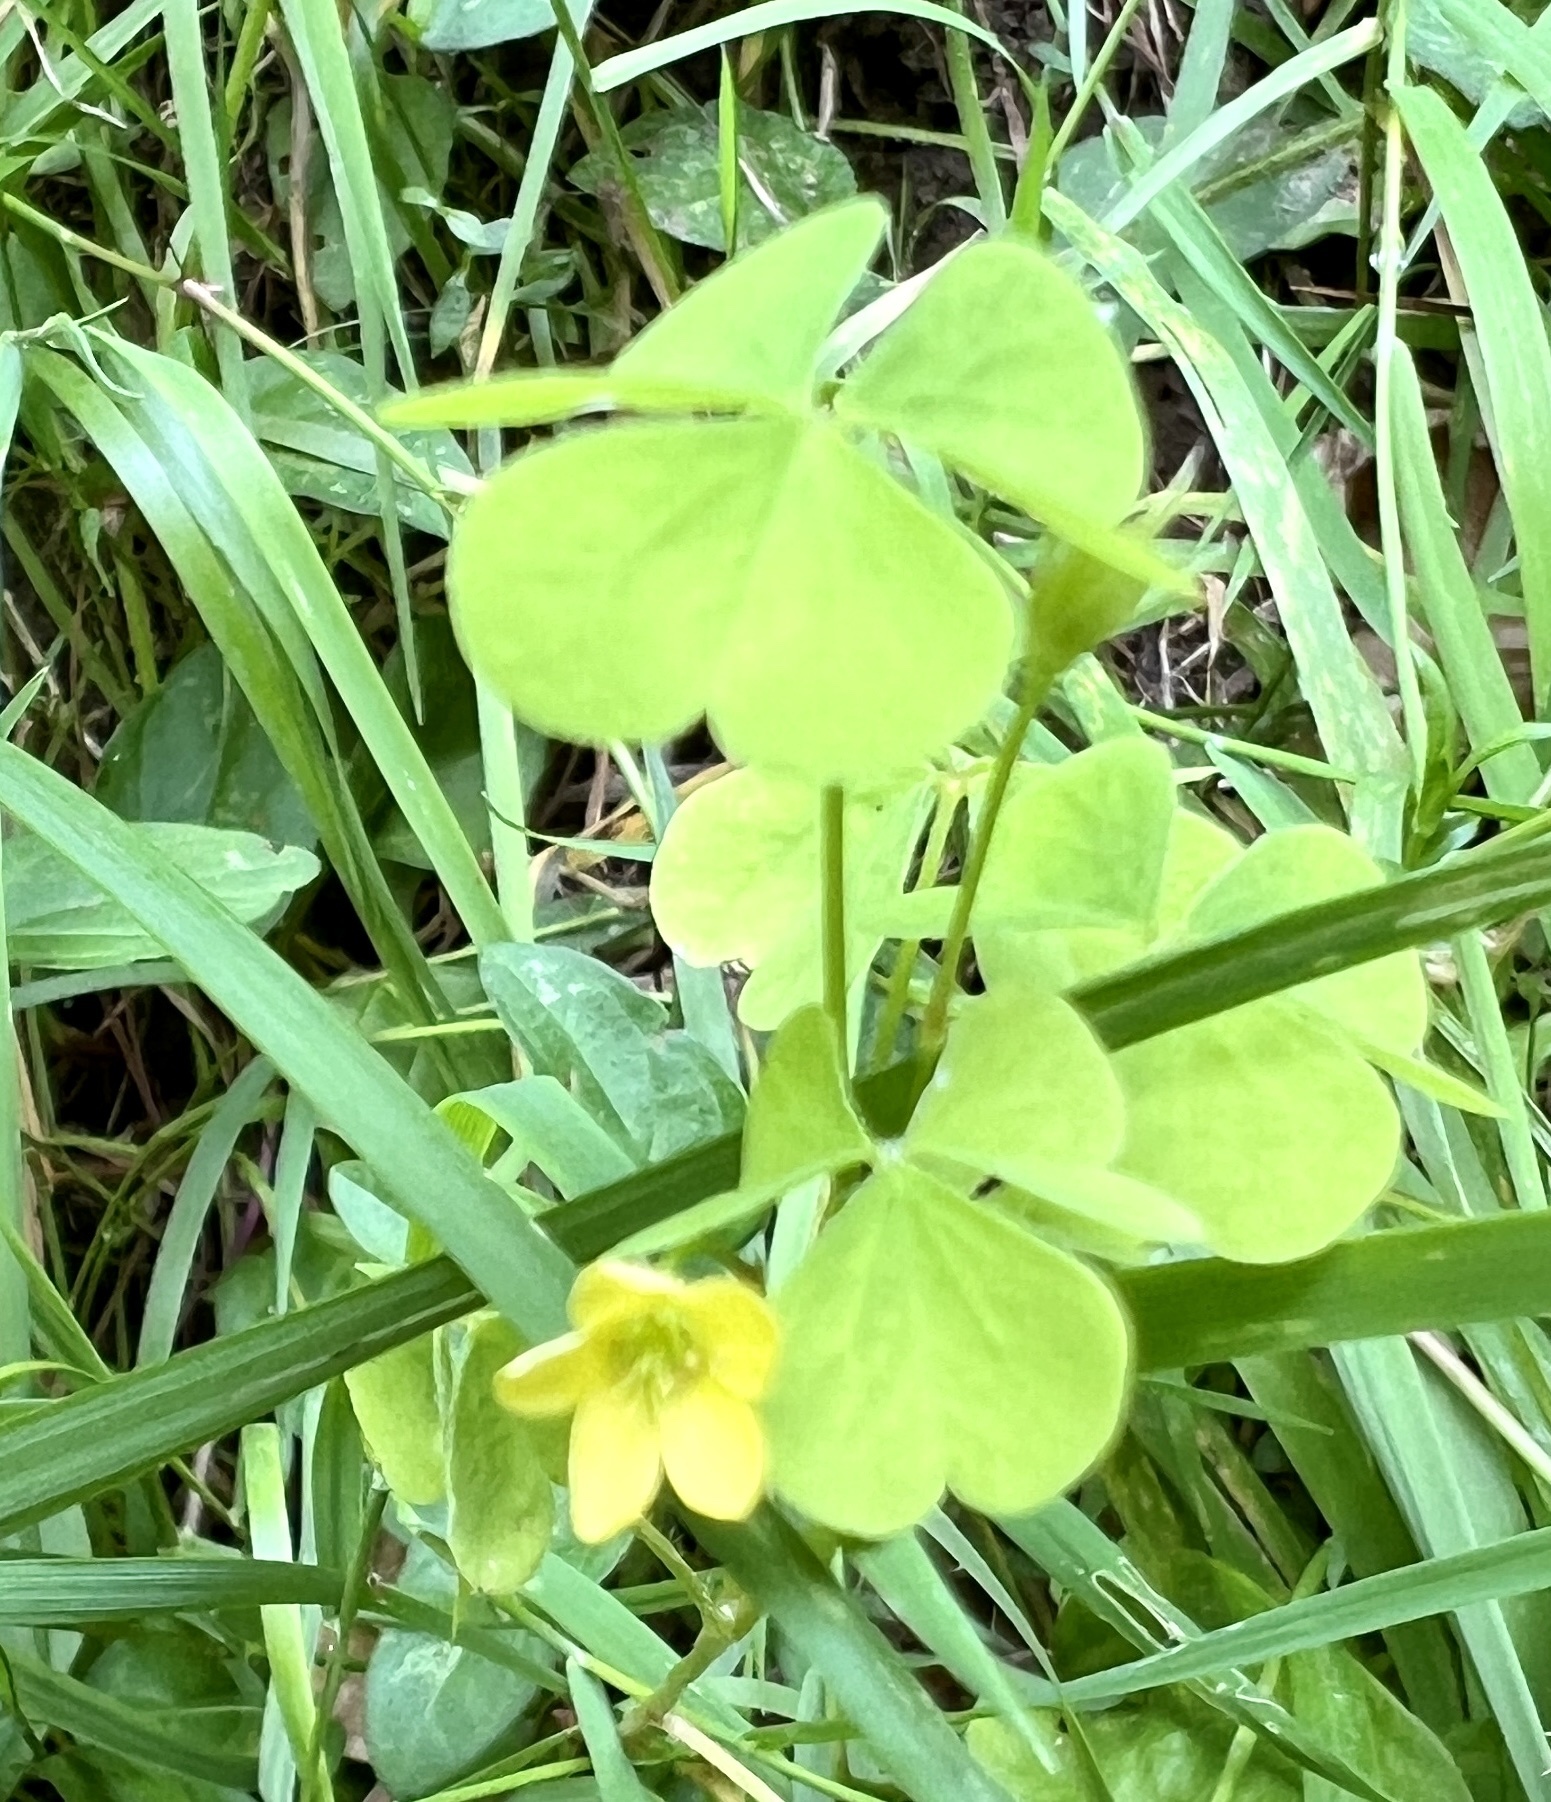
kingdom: Plantae
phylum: Tracheophyta
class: Magnoliopsida
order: Oxalidales
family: Oxalidaceae
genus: Oxalis
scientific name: Oxalis stricta
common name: Upright yellow-sorrel
